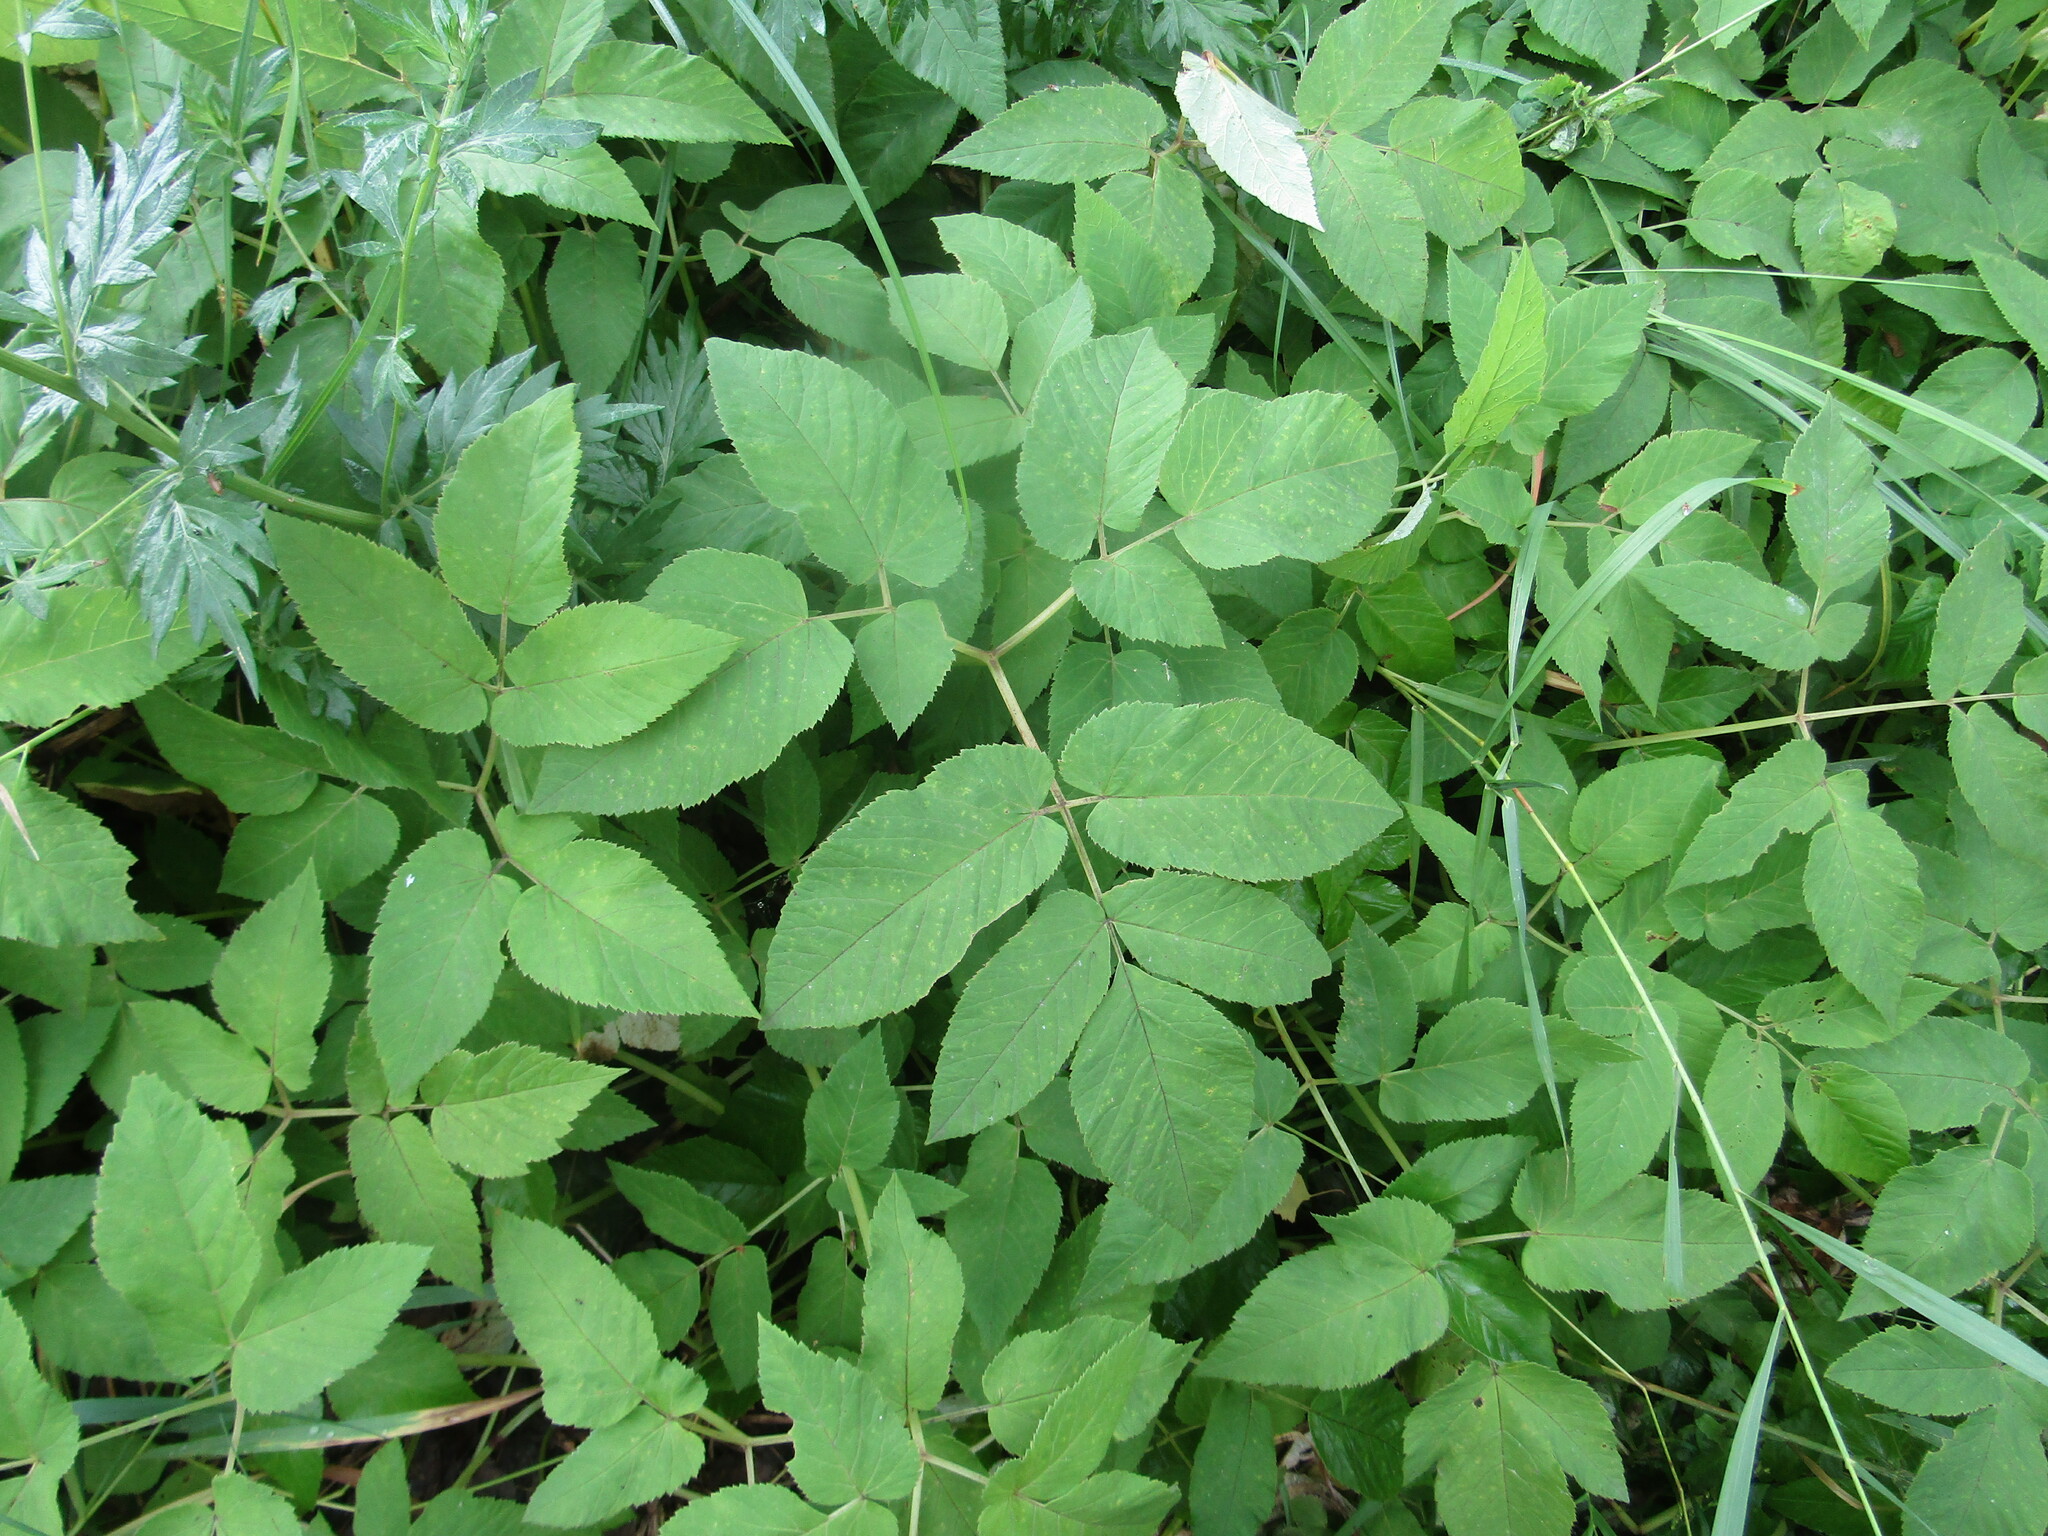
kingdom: Plantae
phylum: Tracheophyta
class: Magnoliopsida
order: Apiales
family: Apiaceae
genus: Aegopodium
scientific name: Aegopodium podagraria
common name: Ground-elder
